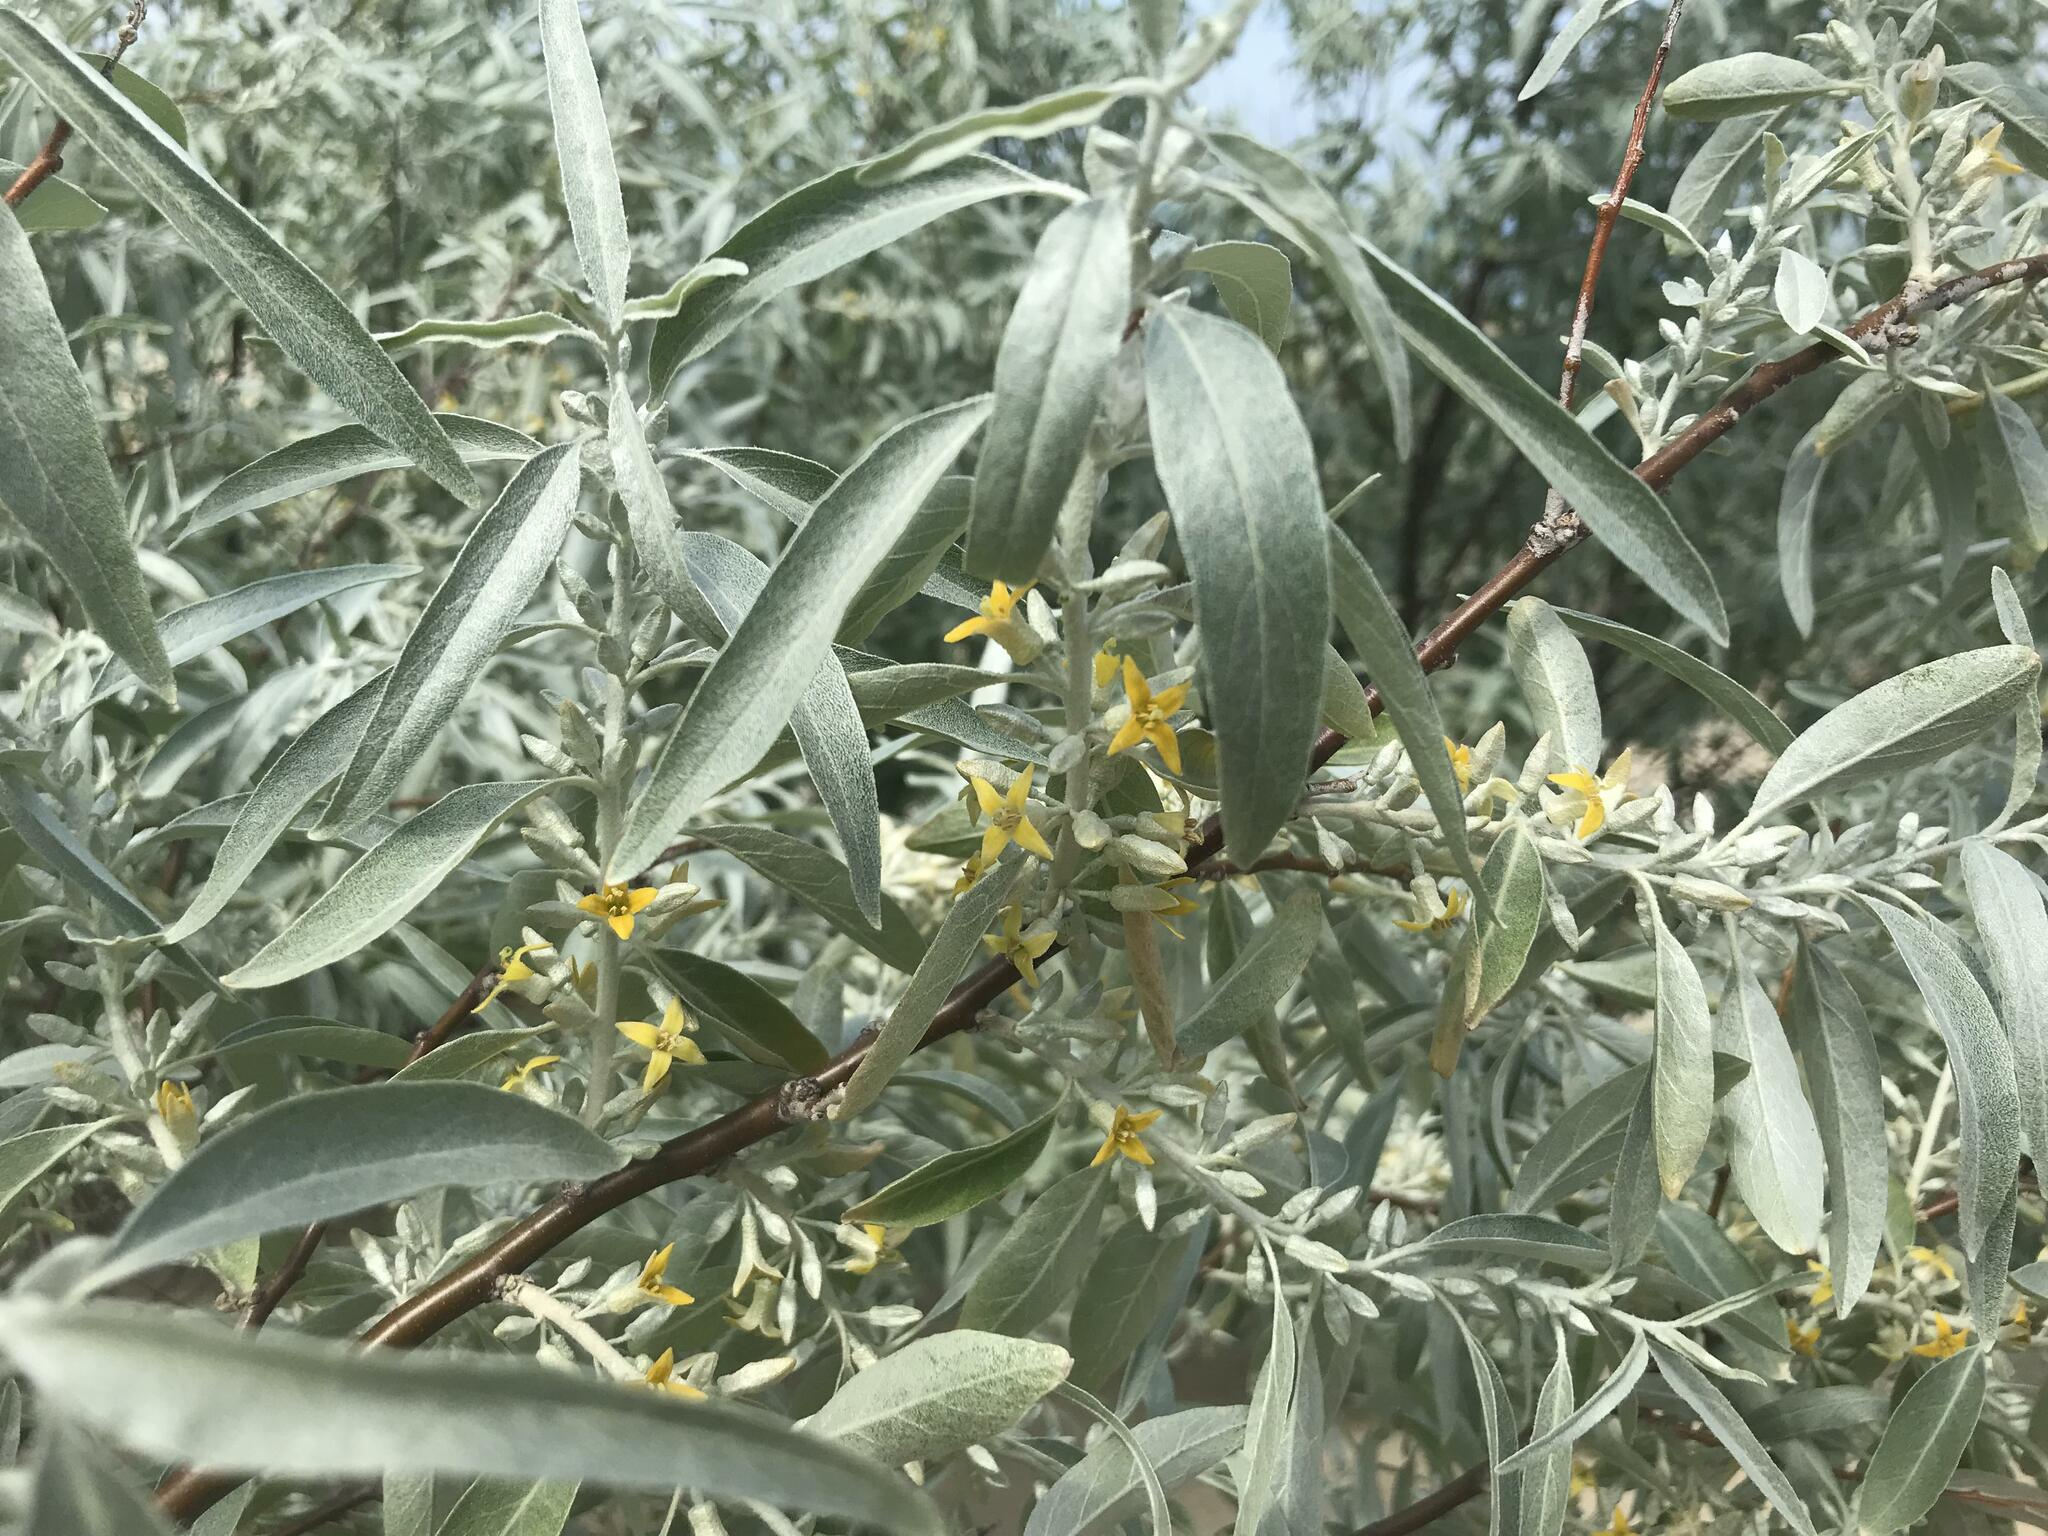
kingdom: Plantae
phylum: Tracheophyta
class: Magnoliopsida
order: Rosales
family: Elaeagnaceae
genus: Elaeagnus
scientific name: Elaeagnus angustifolia
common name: Russian olive
